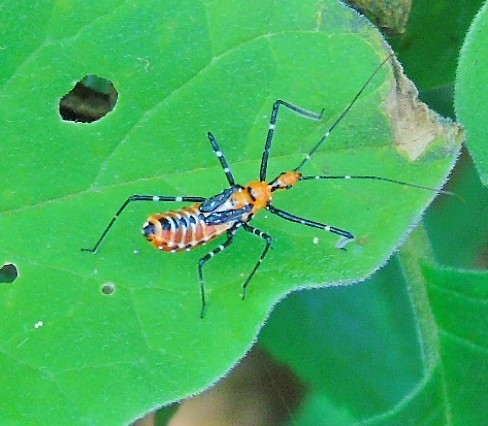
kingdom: Animalia
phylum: Arthropoda
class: Insecta
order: Hemiptera
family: Reduviidae
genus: Zelus
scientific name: Zelus
